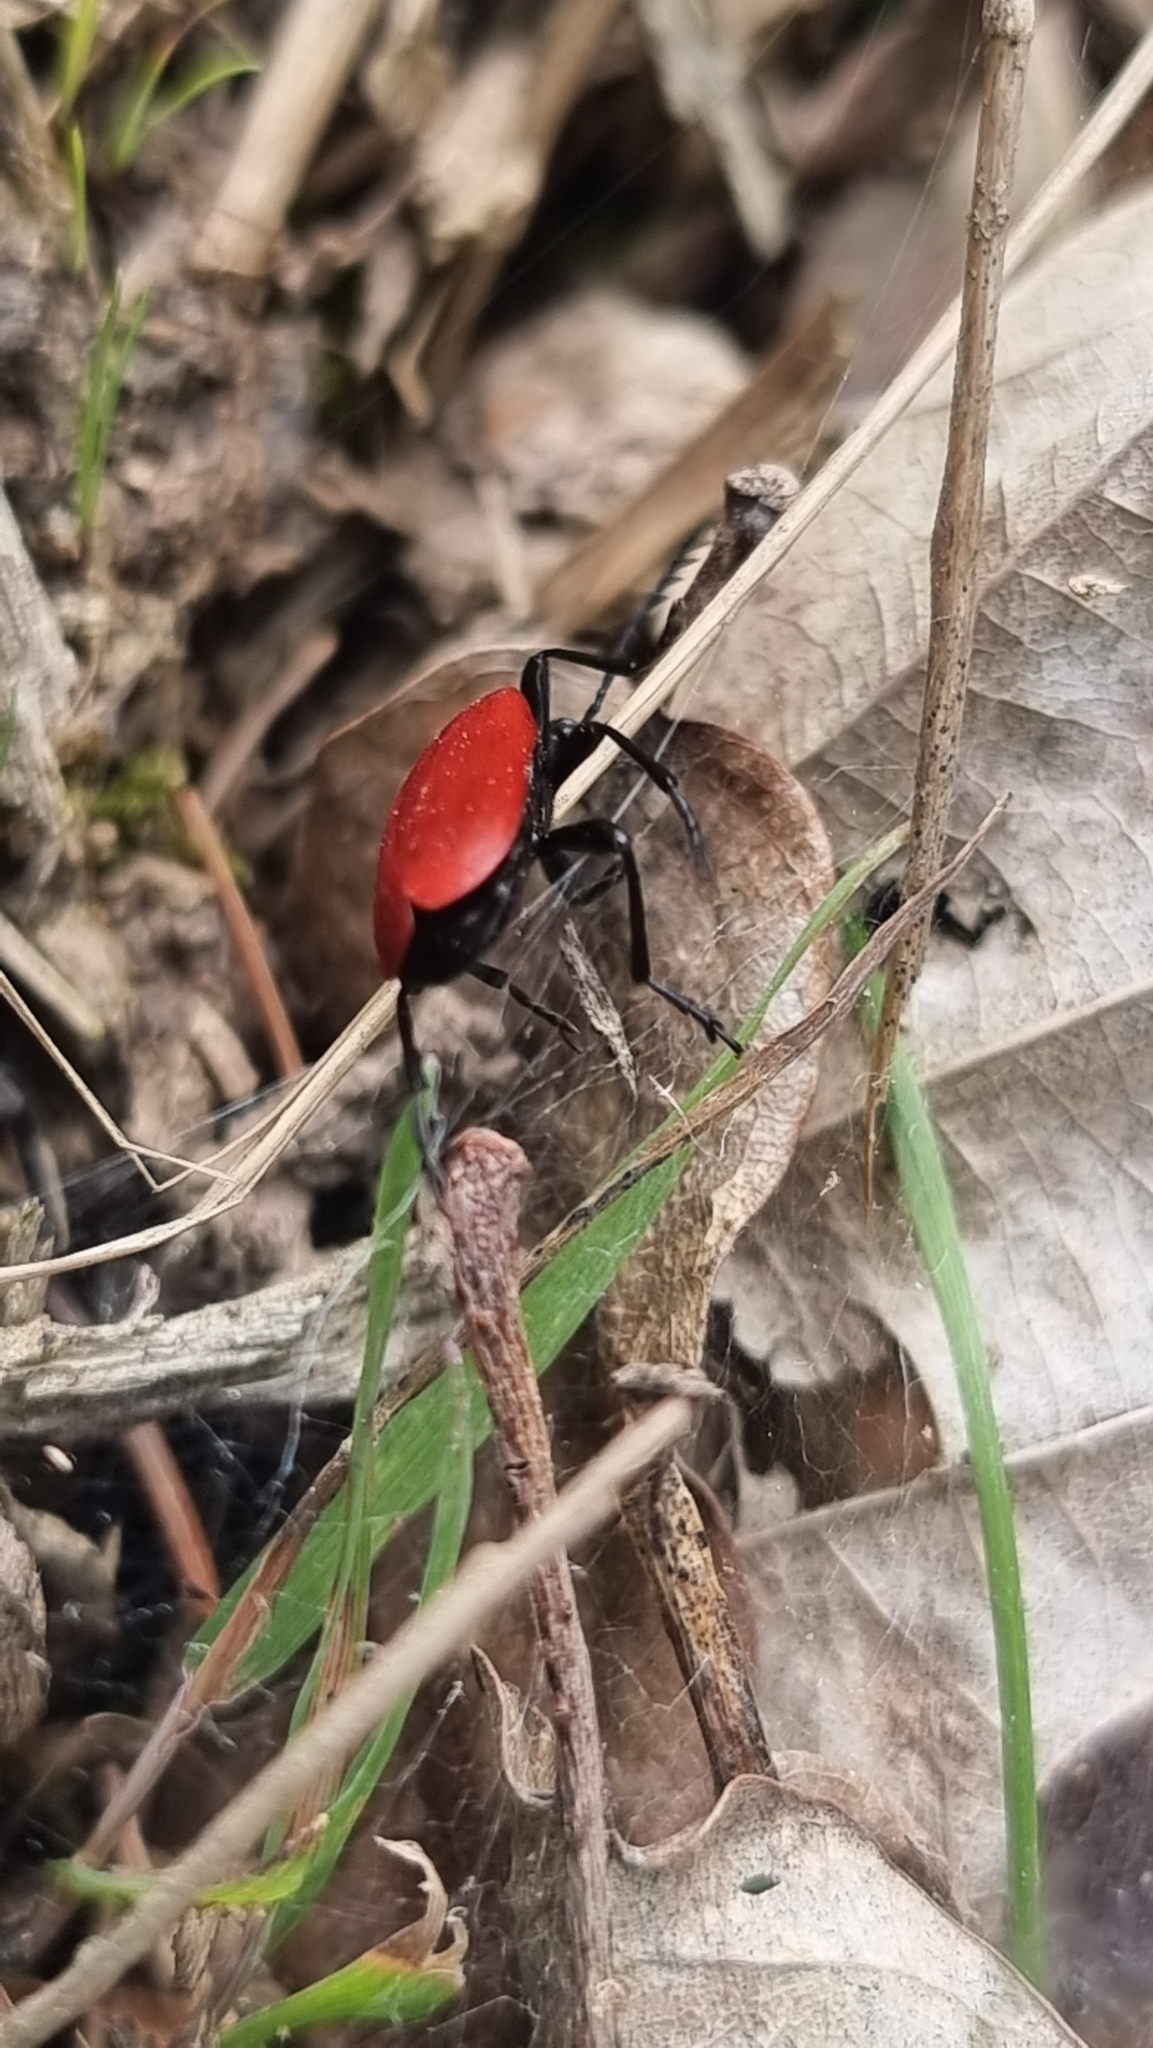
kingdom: Animalia
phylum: Arthropoda
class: Insecta
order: Coleoptera
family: Pyrochroidae
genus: Pyrochroa
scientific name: Pyrochroa coccinea
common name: Black-headed cardinal beetle
